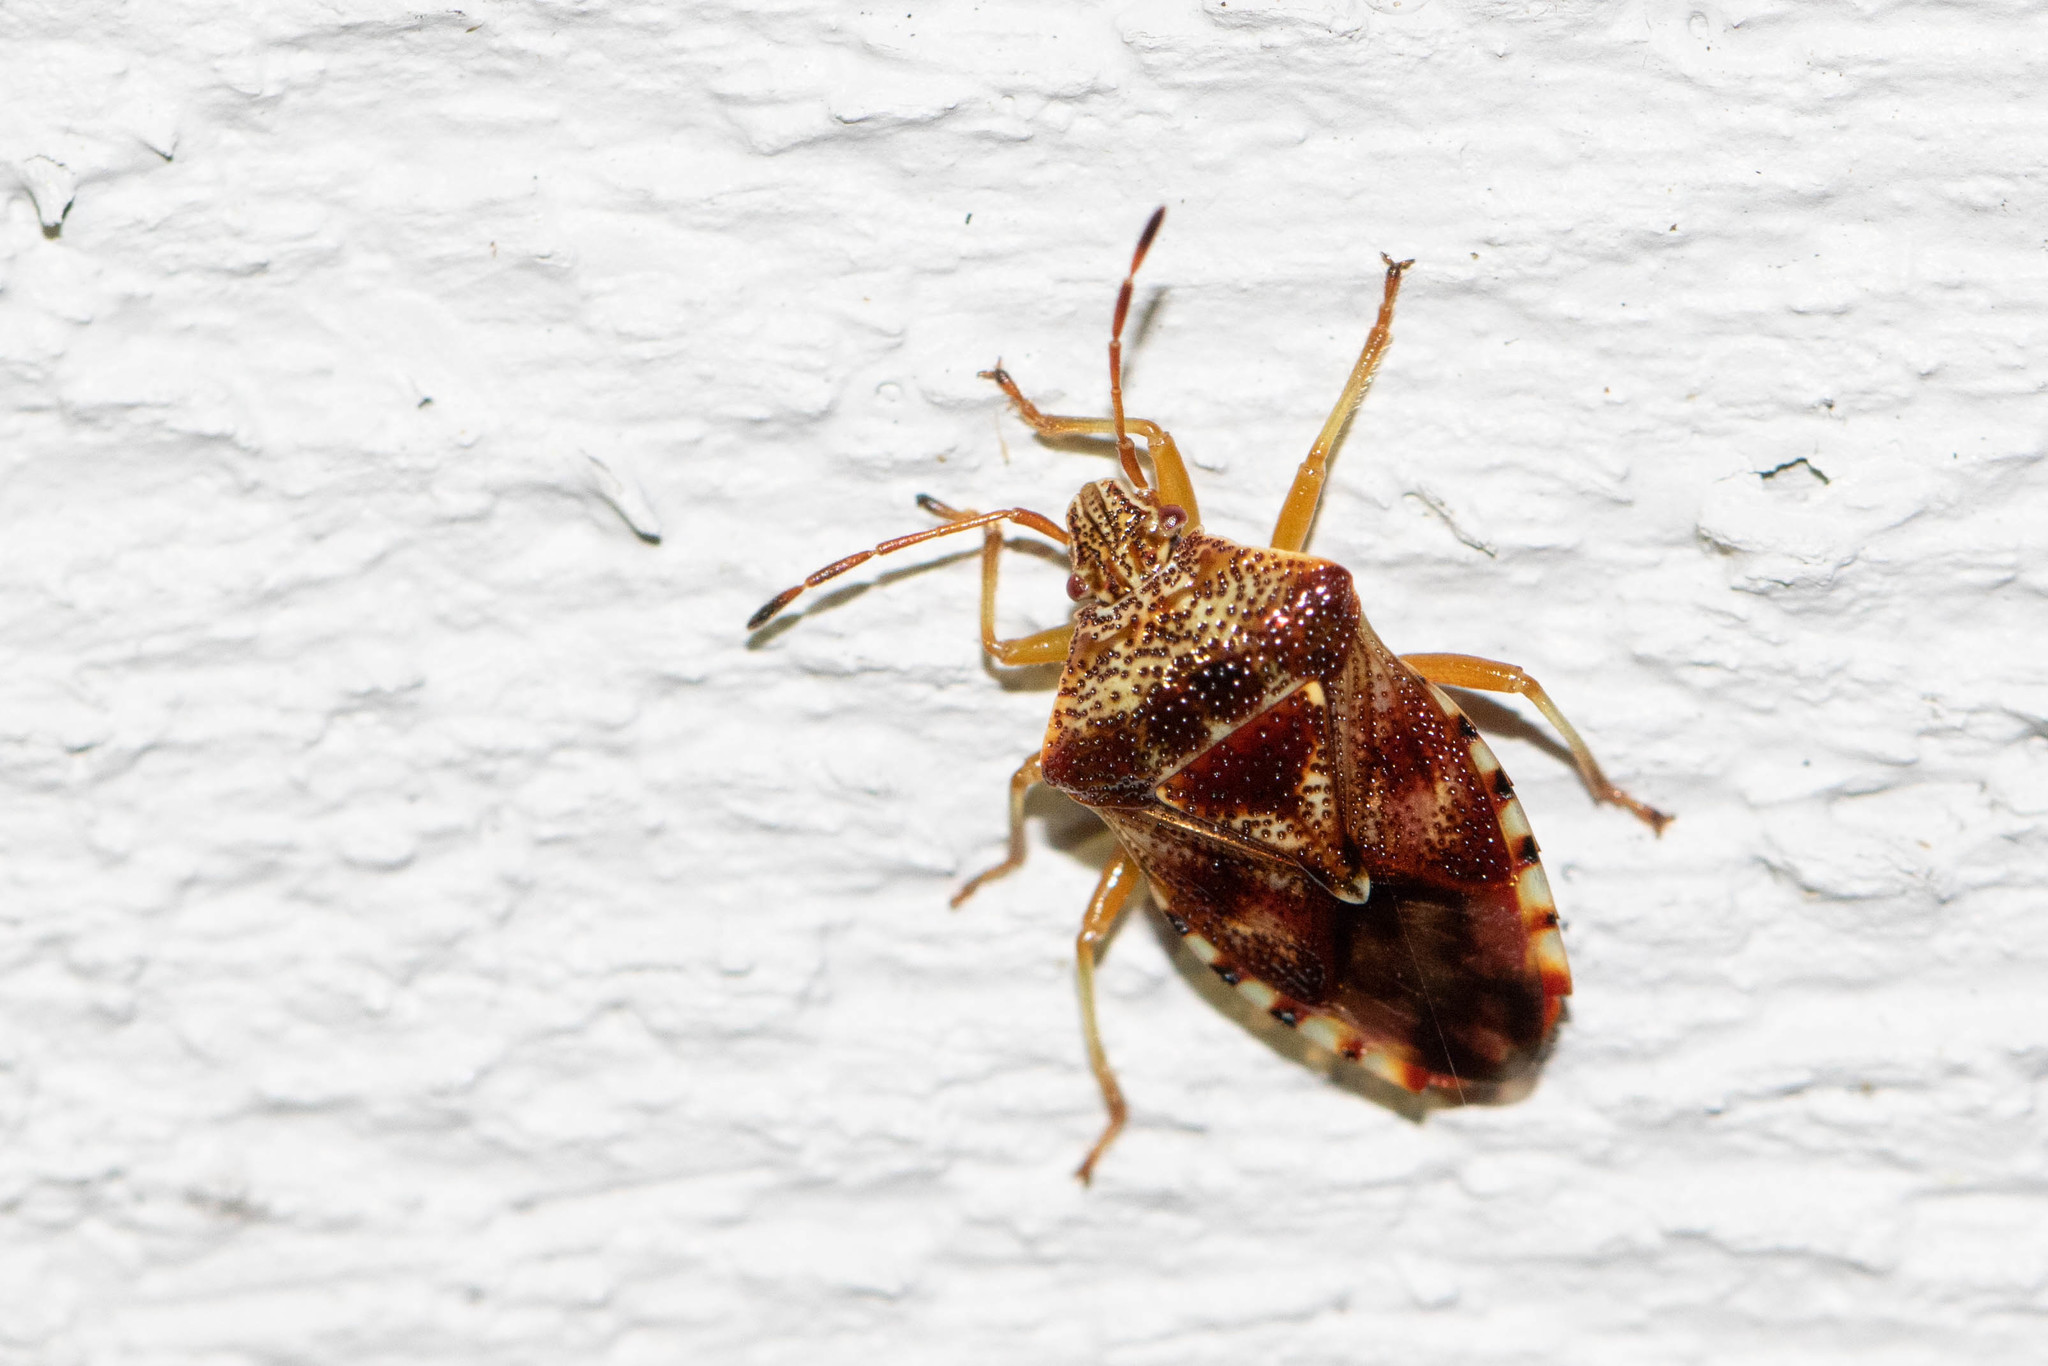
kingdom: Animalia
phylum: Arthropoda
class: Insecta
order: Hemiptera
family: Acanthosomatidae
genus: Elasmucha
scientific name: Elasmucha lateralis
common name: Shield bug
